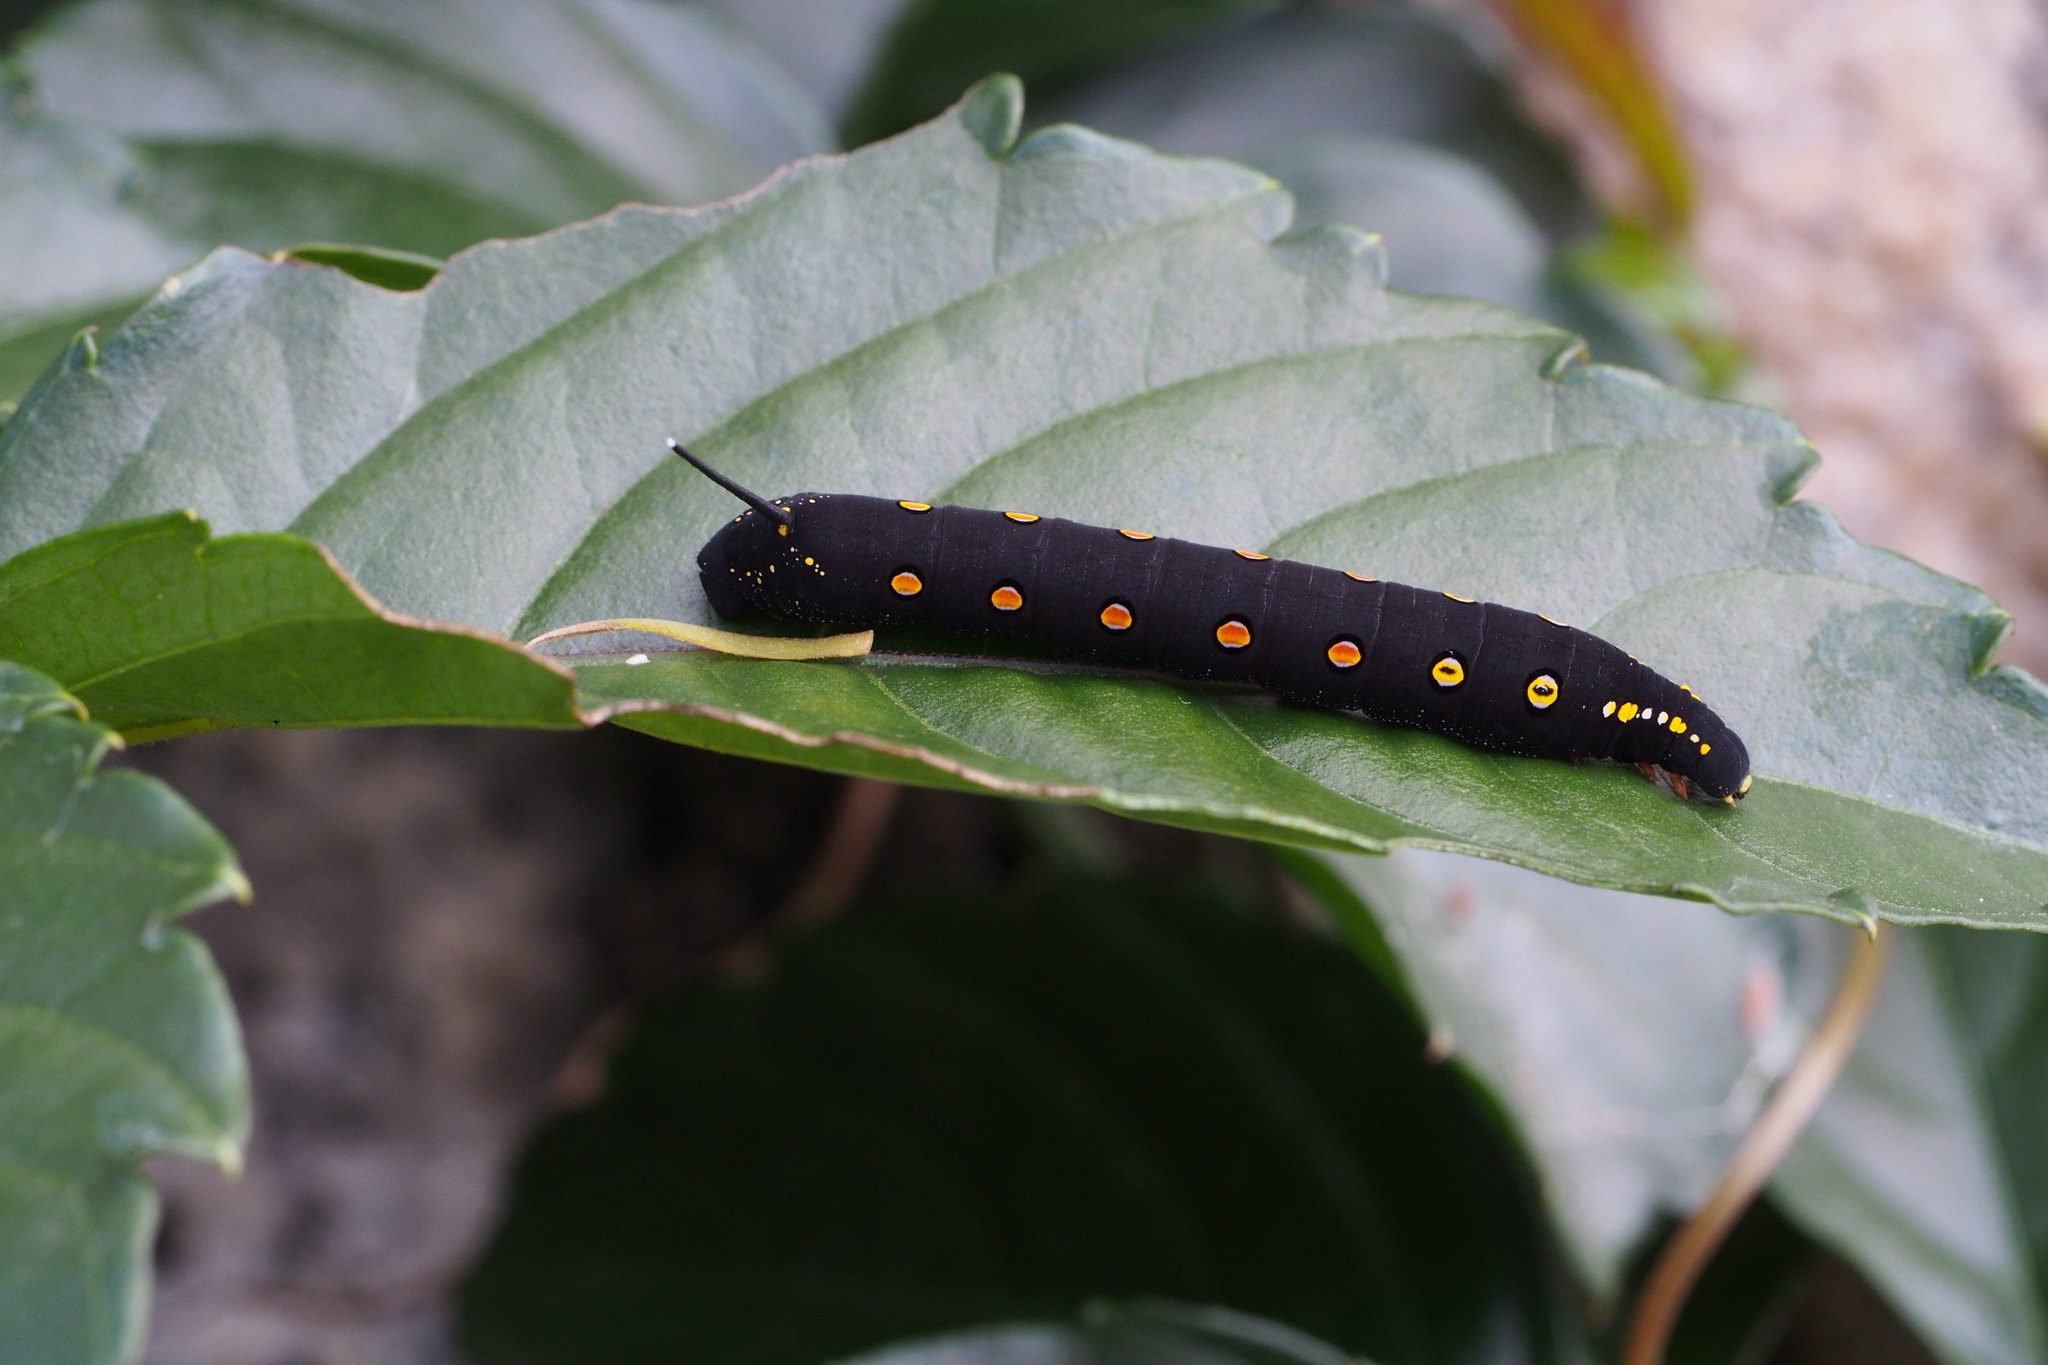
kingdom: Animalia
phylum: Arthropoda
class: Insecta
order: Lepidoptera
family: Sphingidae
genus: Theretra
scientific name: Theretra oldenlandiae
